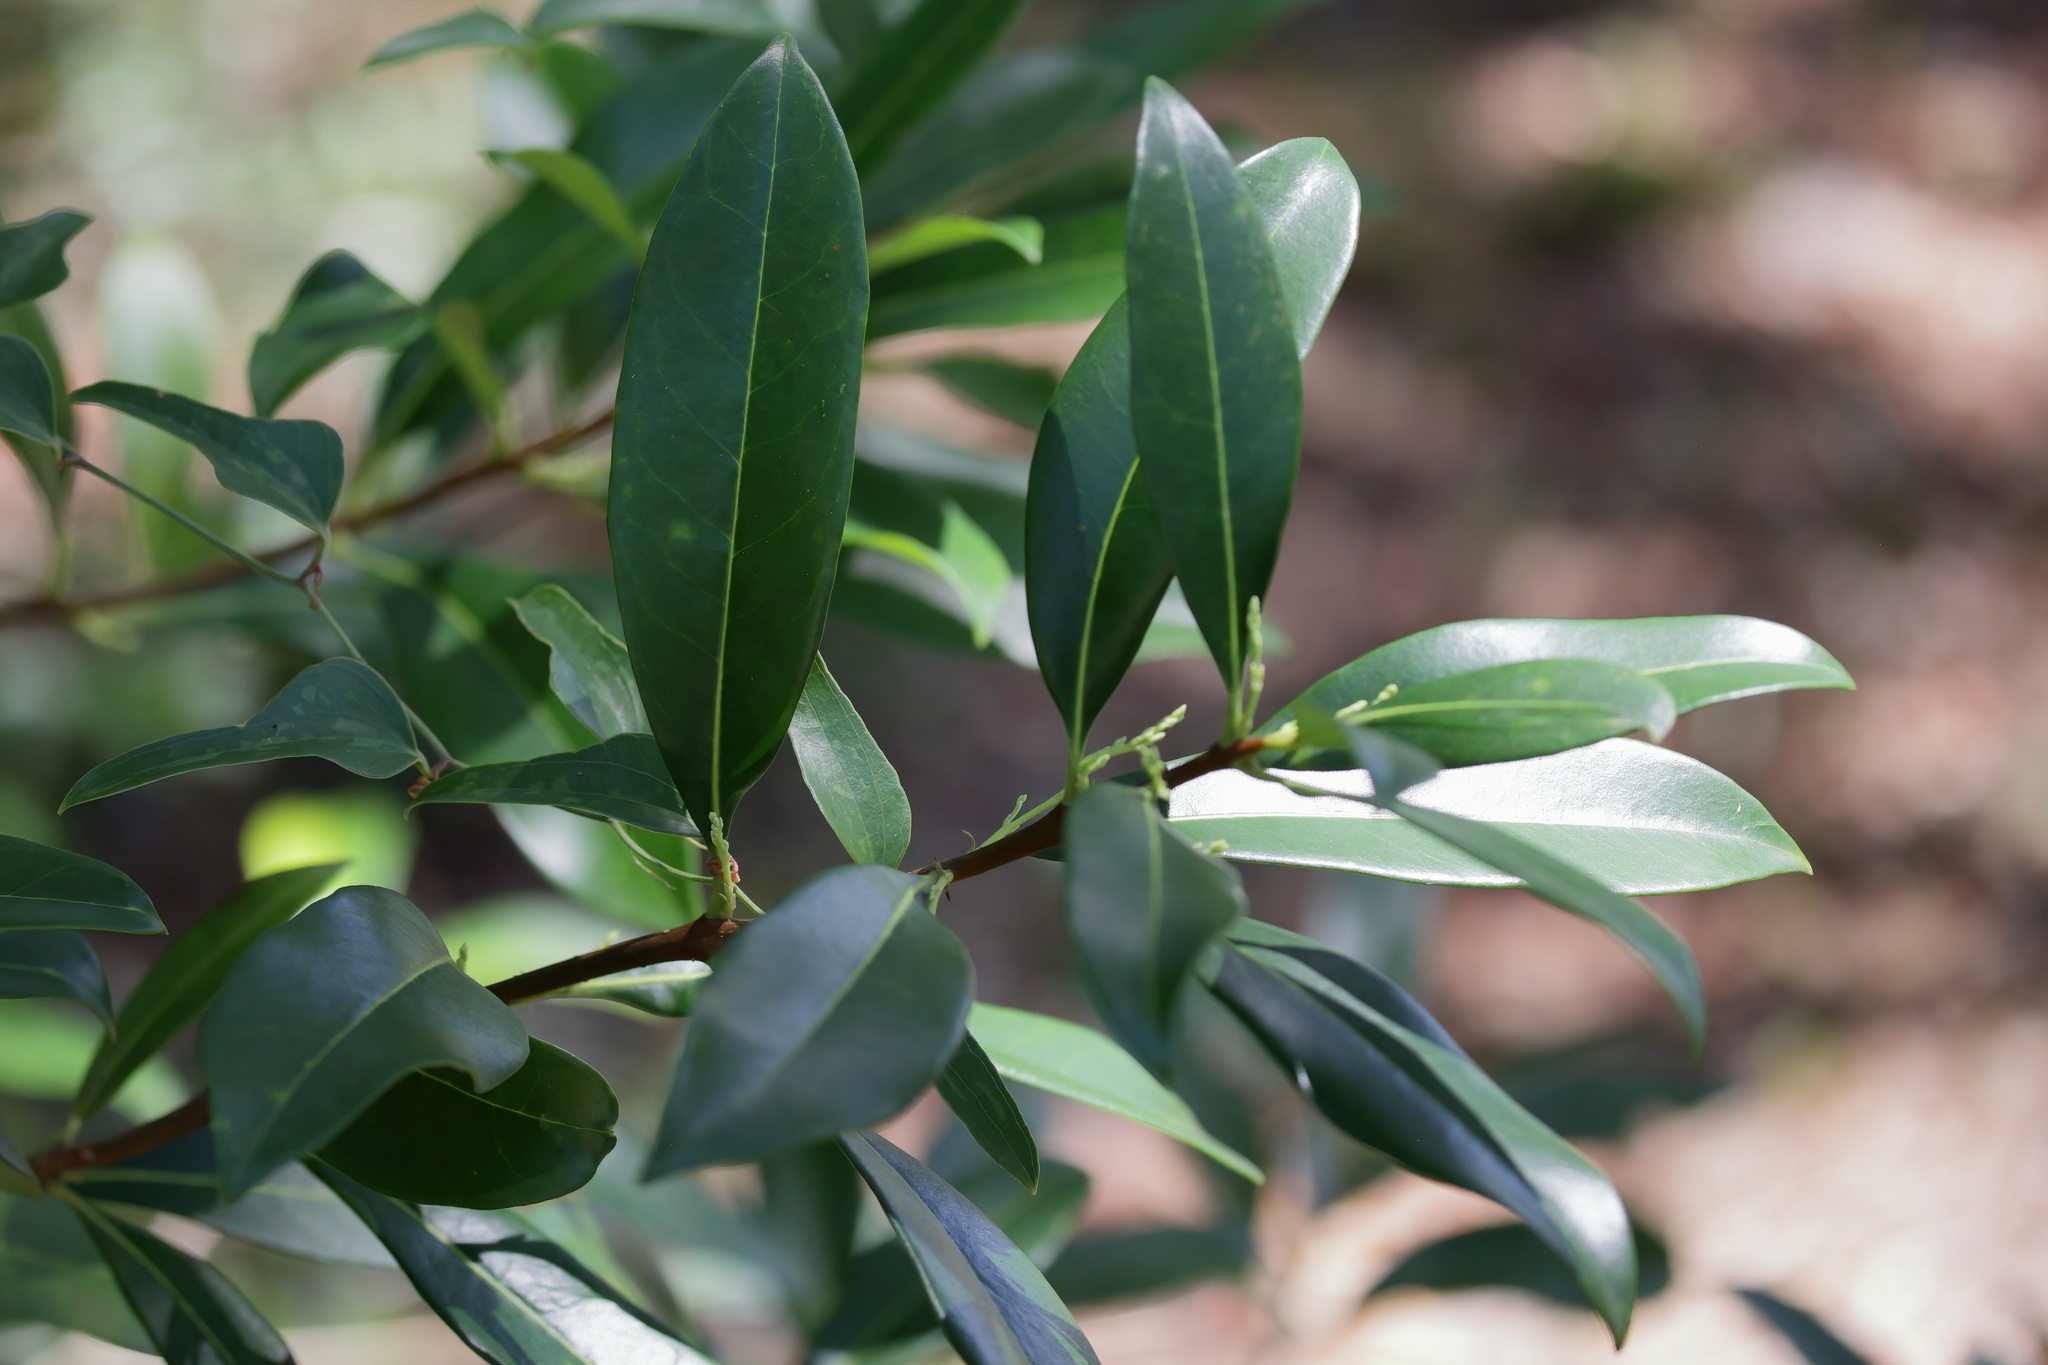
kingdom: Plantae
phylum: Tracheophyta
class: Magnoliopsida
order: Lamiales
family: Oleaceae
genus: Cartrema
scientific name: Cartrema americana
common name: Devilwood
